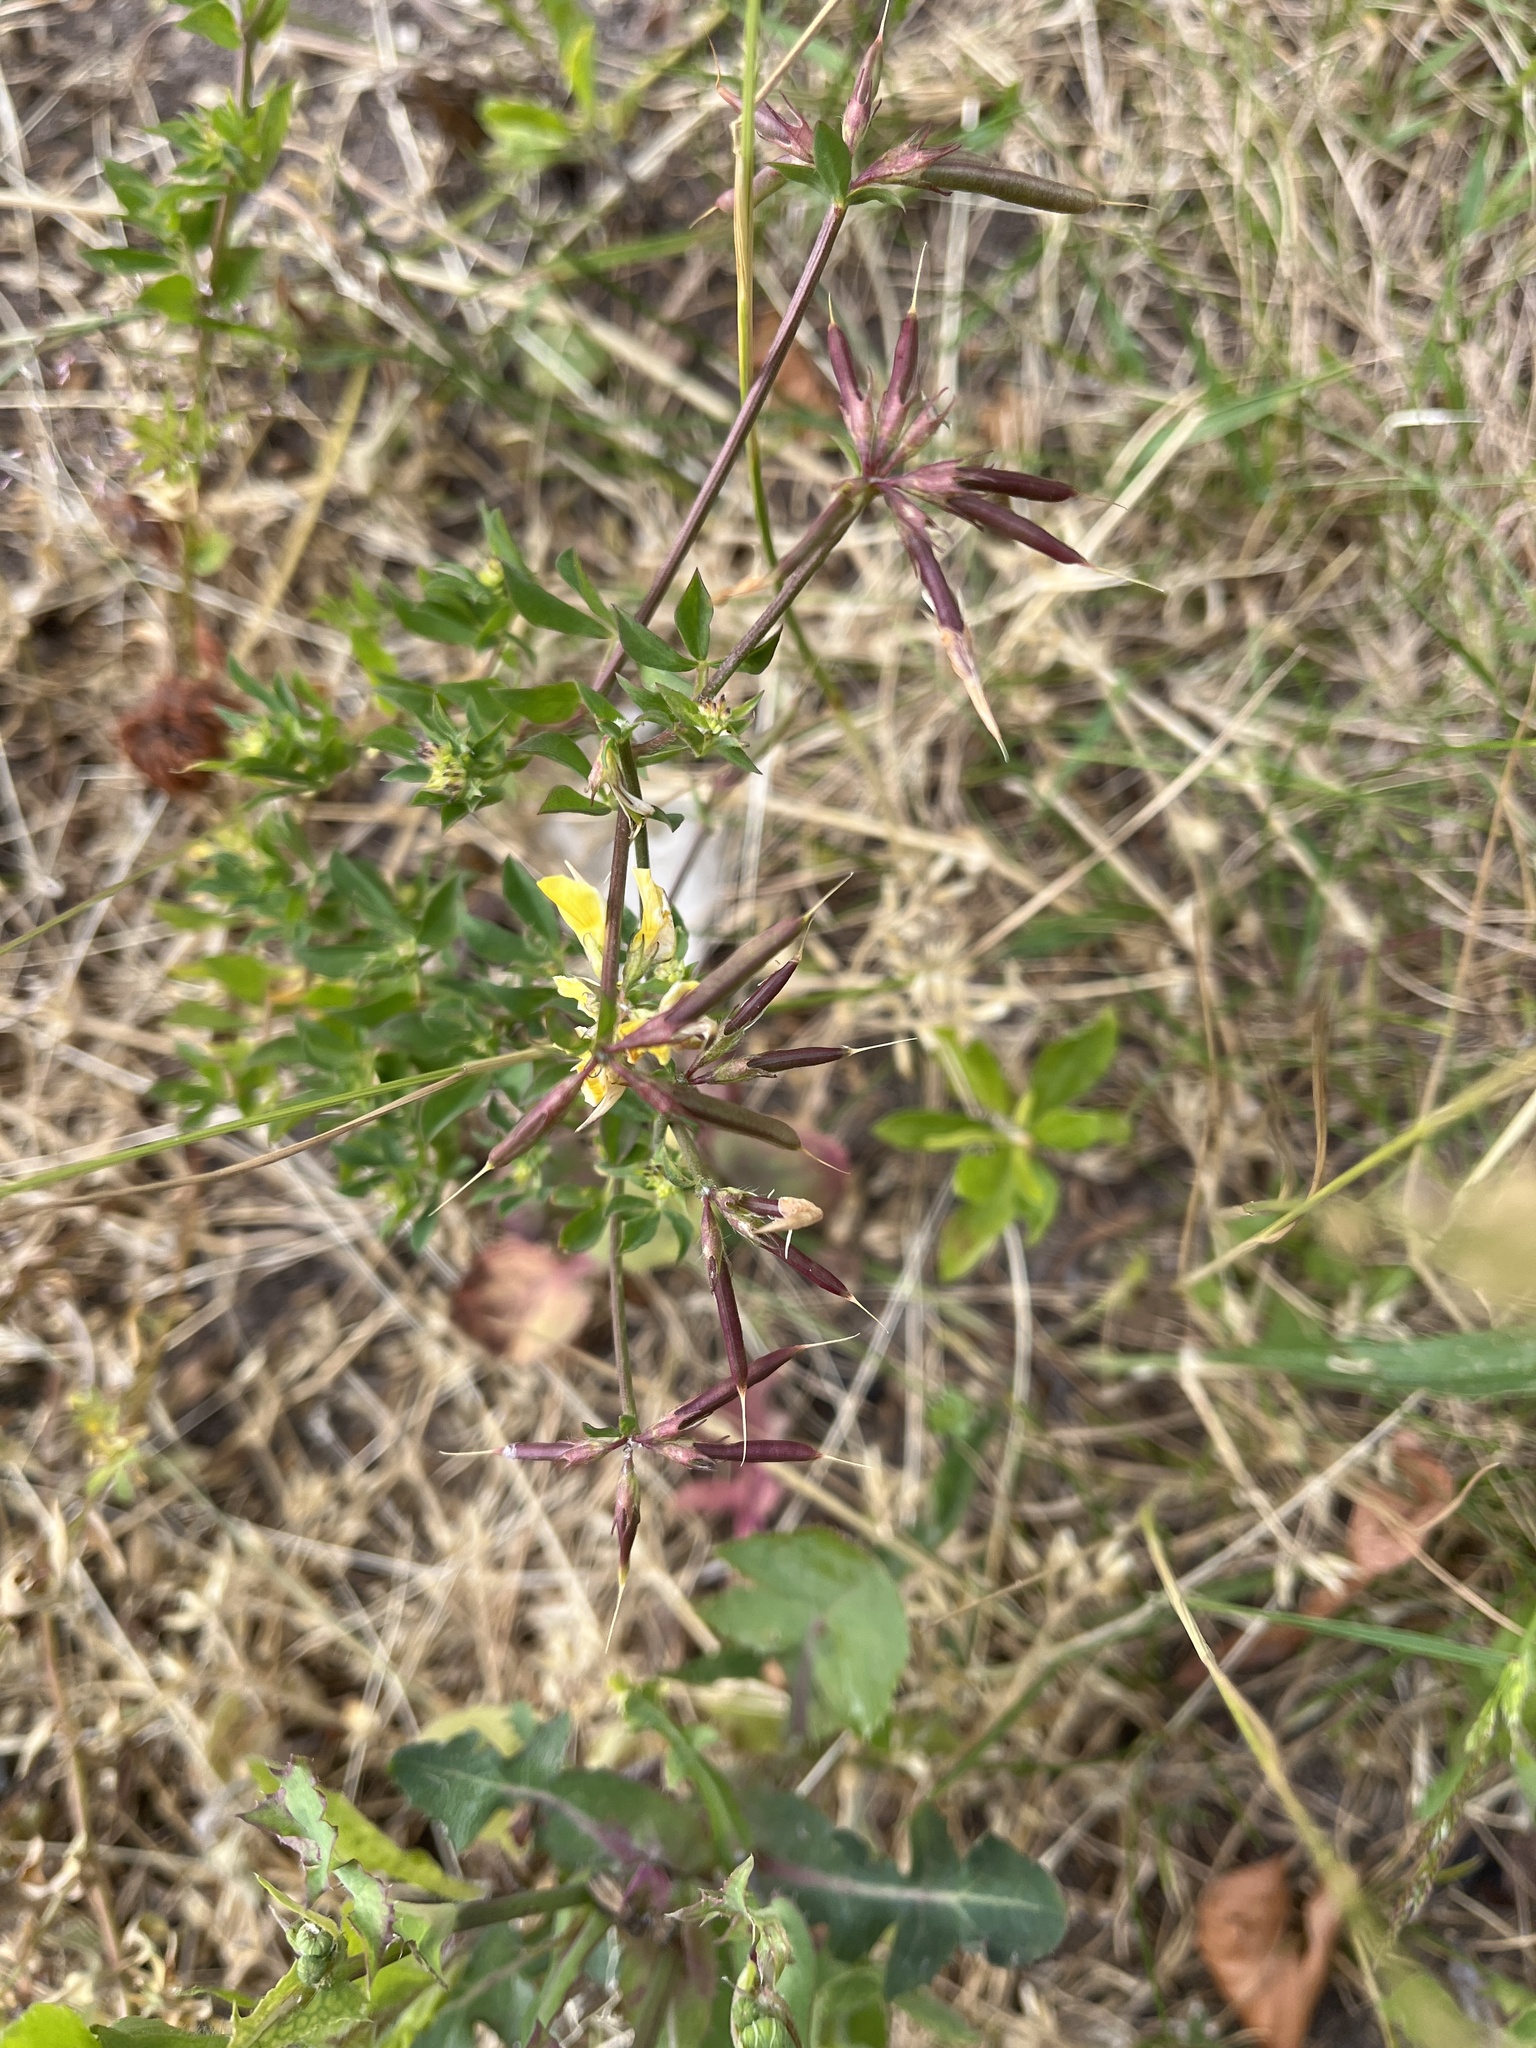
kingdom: Plantae
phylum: Tracheophyta
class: Magnoliopsida
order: Fabales
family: Fabaceae
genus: Lotus
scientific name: Lotus corniculatus
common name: Common bird's-foot-trefoil
